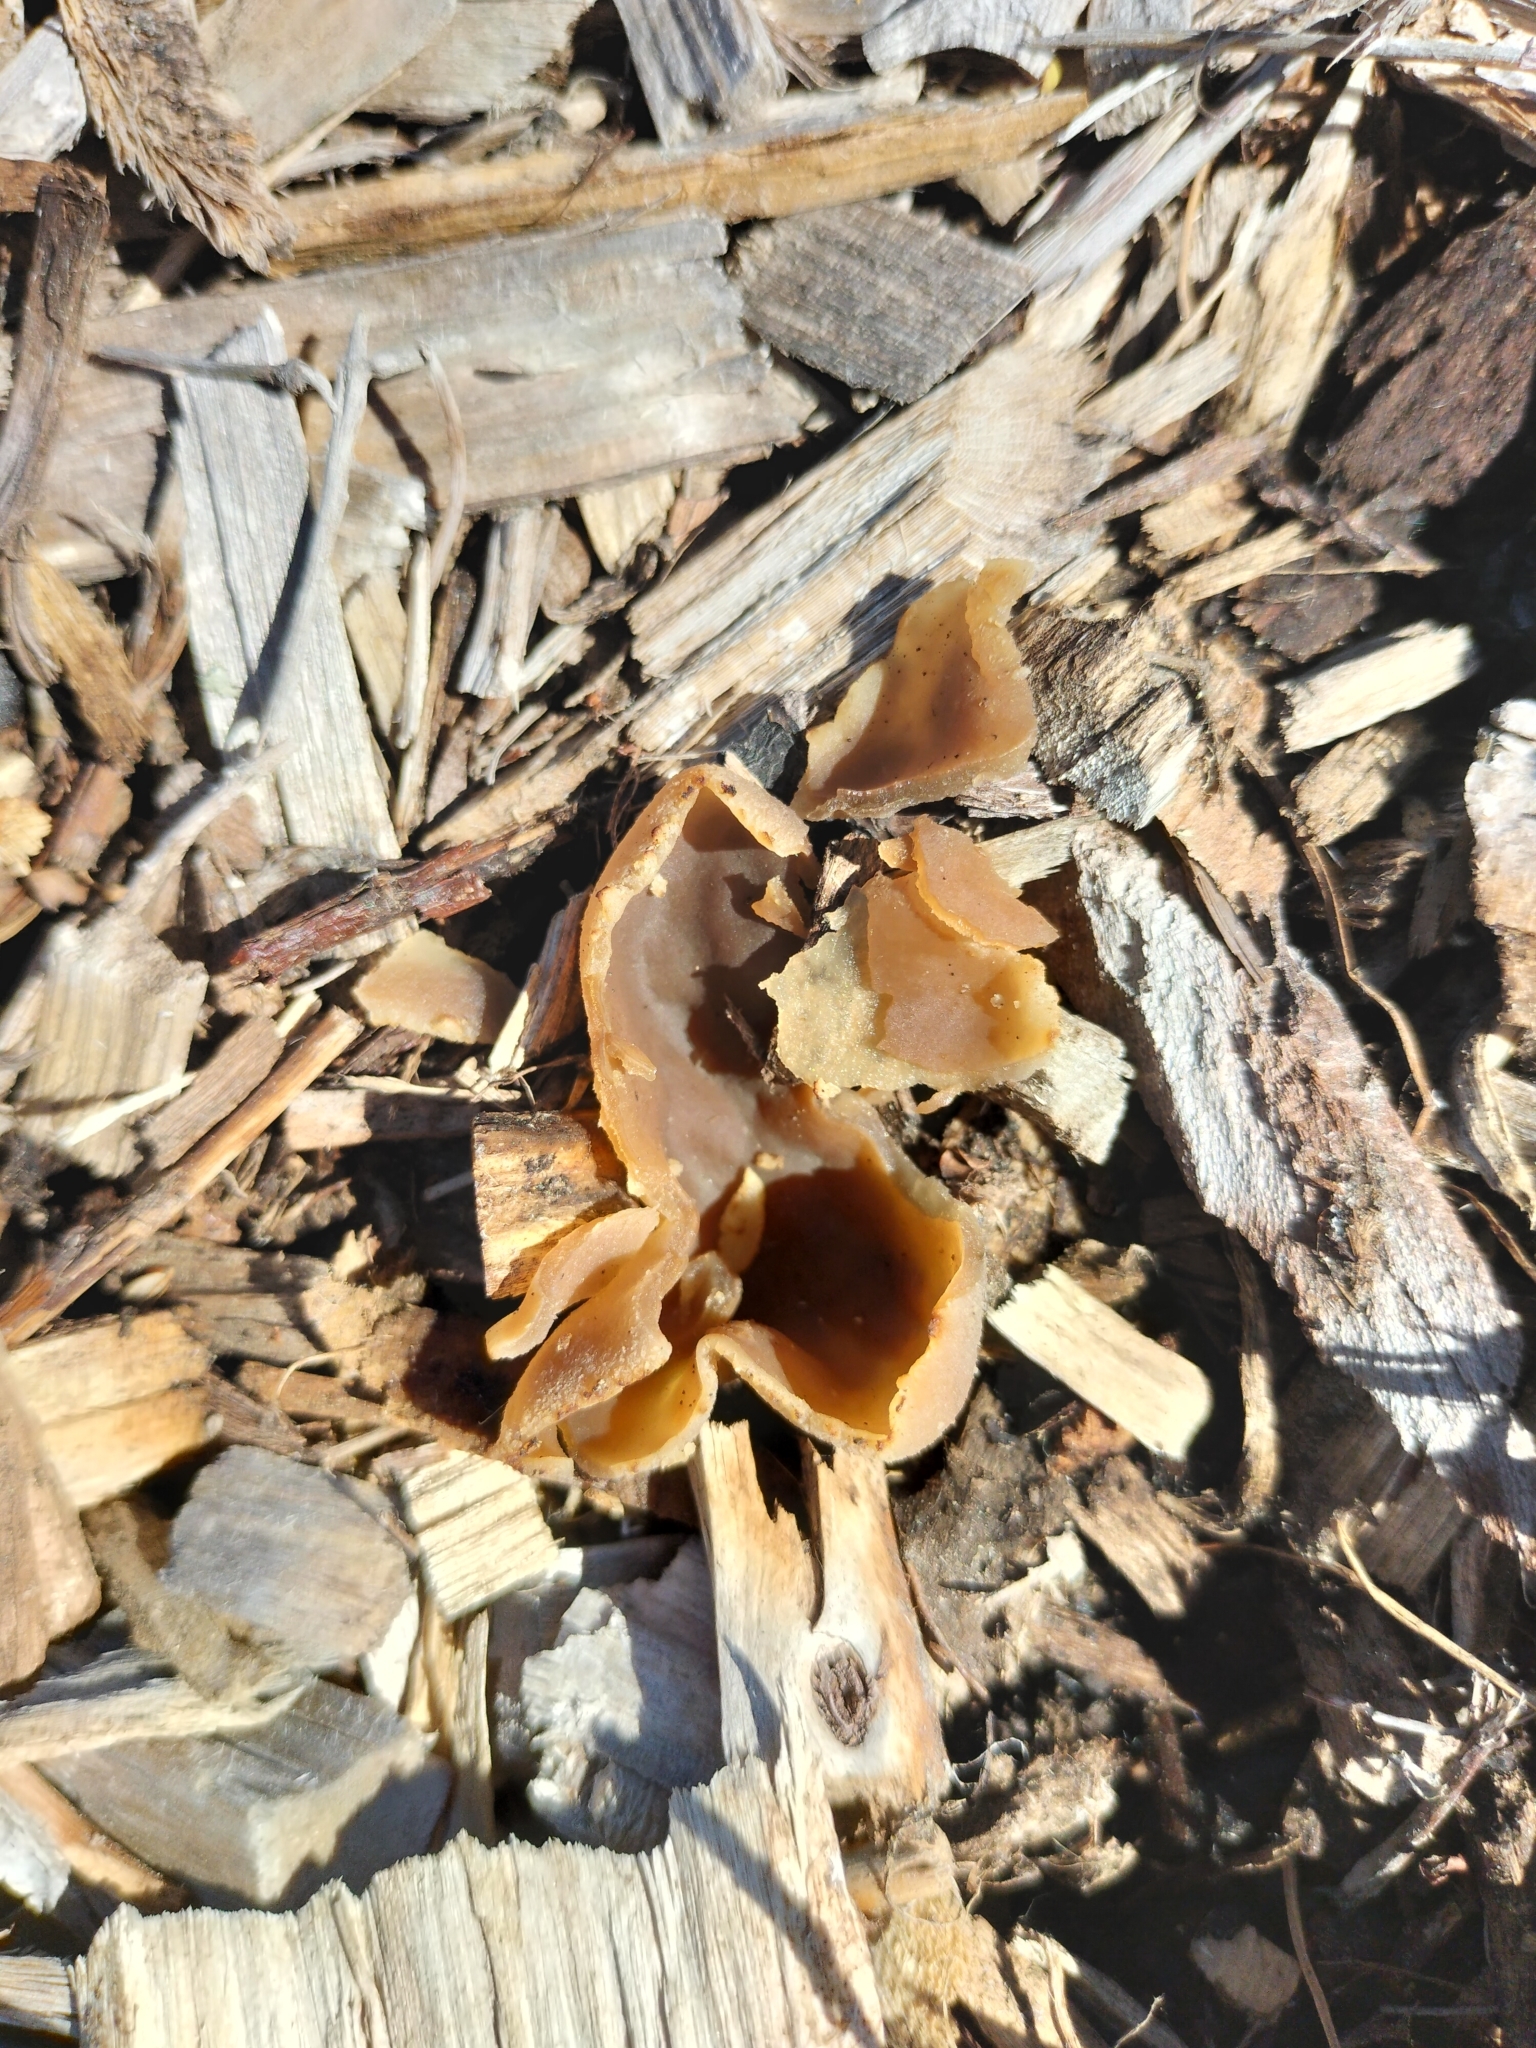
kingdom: Fungi
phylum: Ascomycota
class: Pezizomycetes
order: Pezizales
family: Pezizaceae
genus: Peziza
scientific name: Peziza varia
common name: Layered cup
